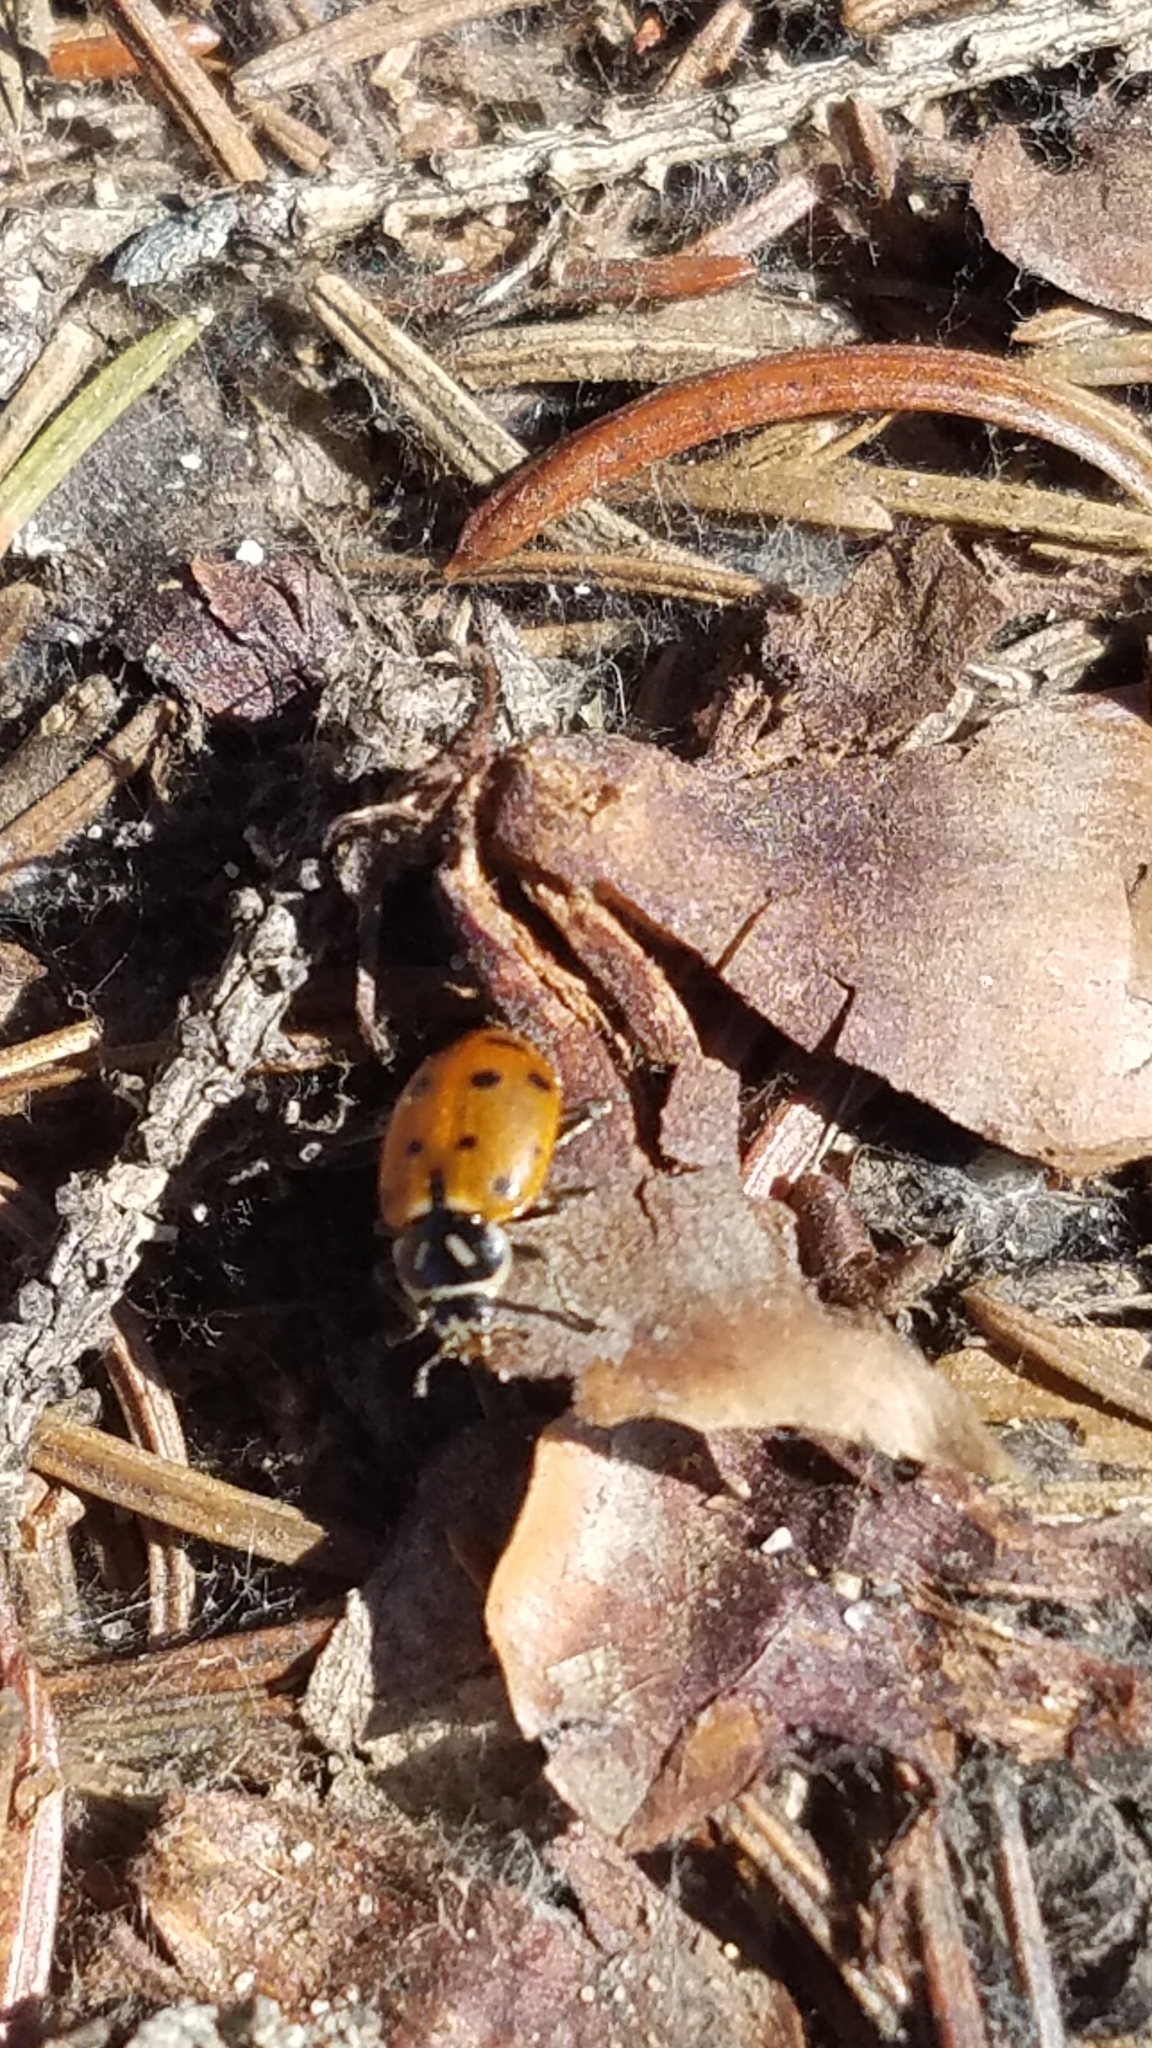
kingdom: Animalia
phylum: Arthropoda
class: Insecta
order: Coleoptera
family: Coccinellidae
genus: Hippodamia
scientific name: Hippodamia convergens
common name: Convergent lady beetle
